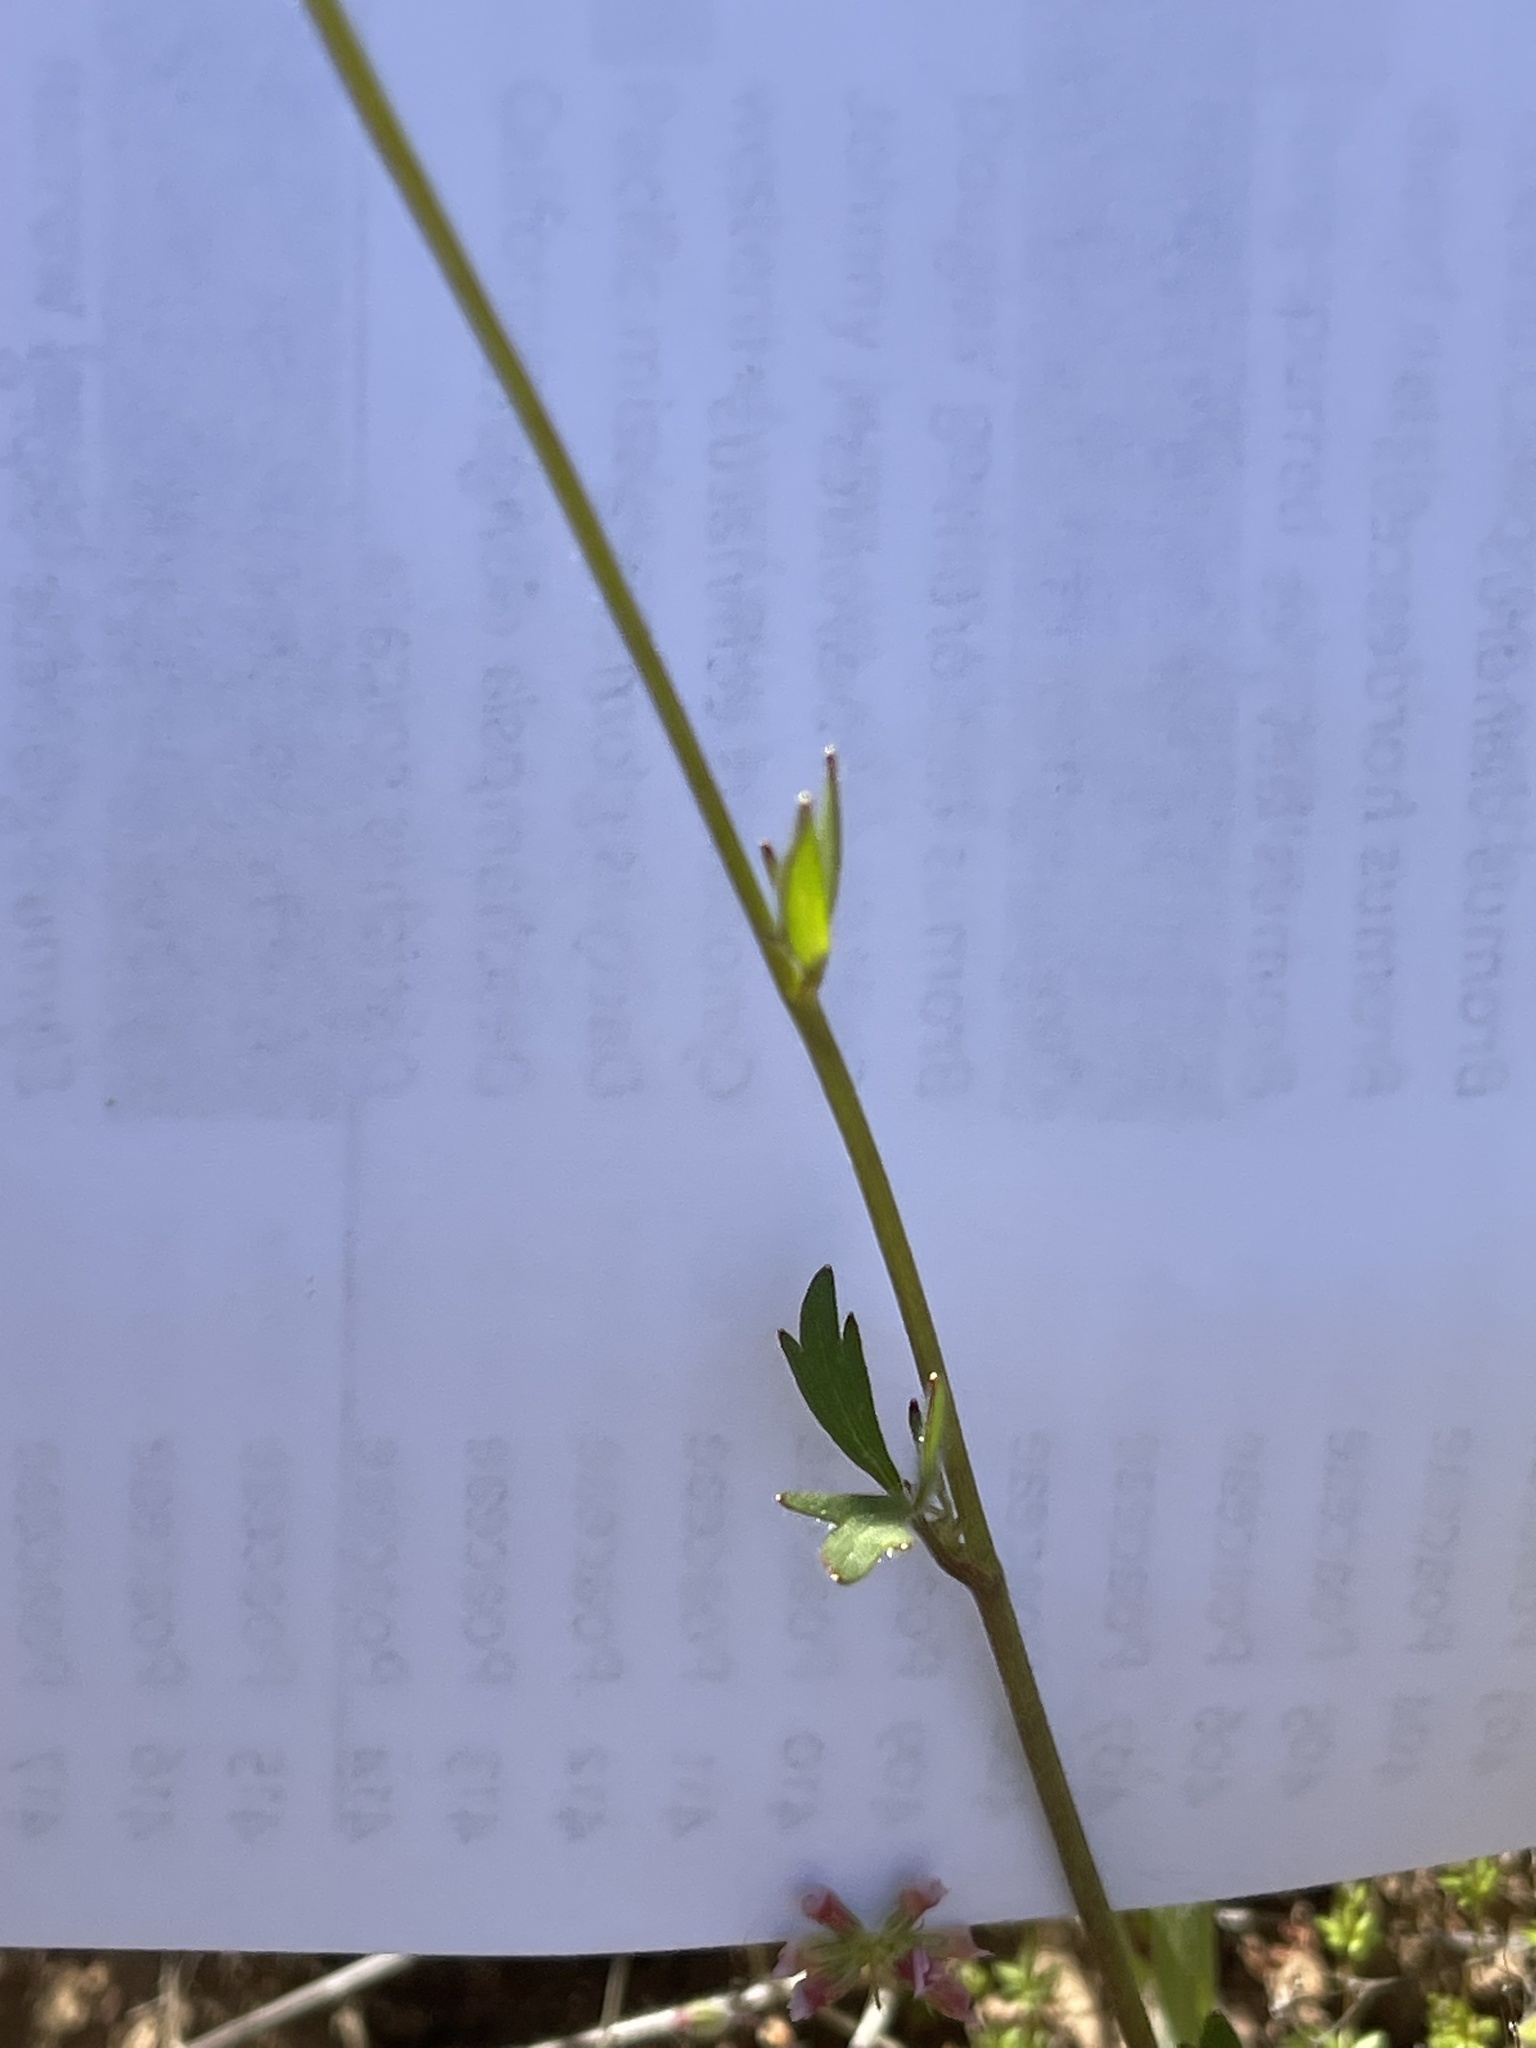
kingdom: Plantae
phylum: Tracheophyta
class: Magnoliopsida
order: Ranunculales
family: Ranunculaceae
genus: Ranunculus
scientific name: Ranunculus californicus
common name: California buttercup
